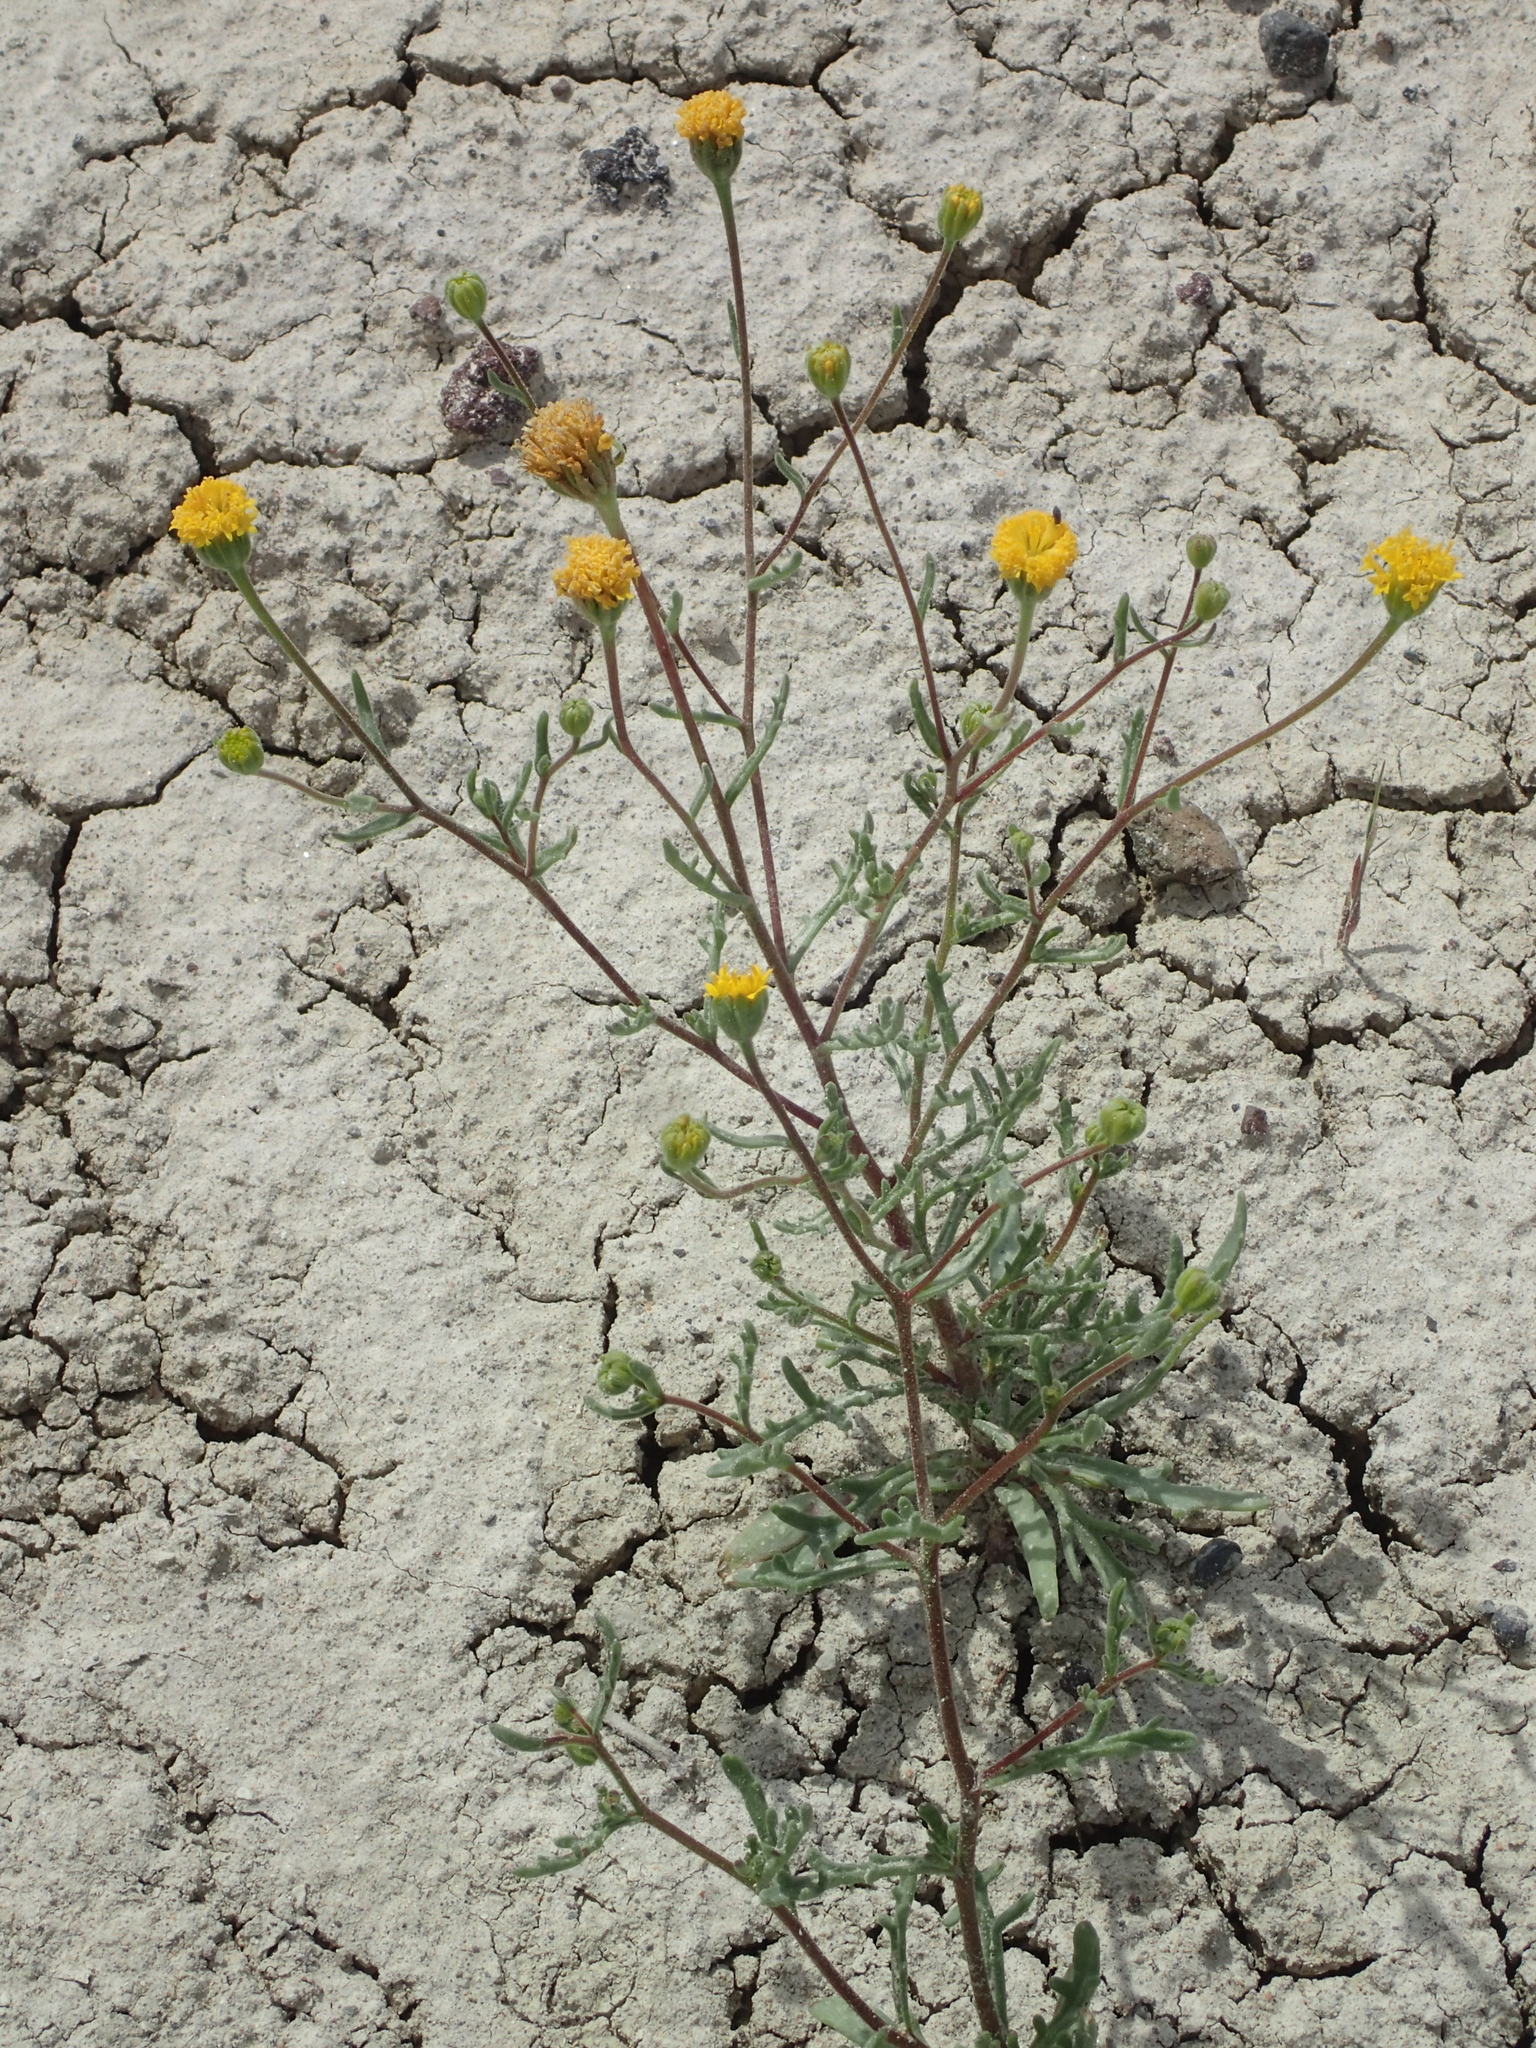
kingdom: Plantae
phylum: Tracheophyta
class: Magnoliopsida
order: Asterales
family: Asteraceae
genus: Chaenactis
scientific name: Chaenactis nevii
